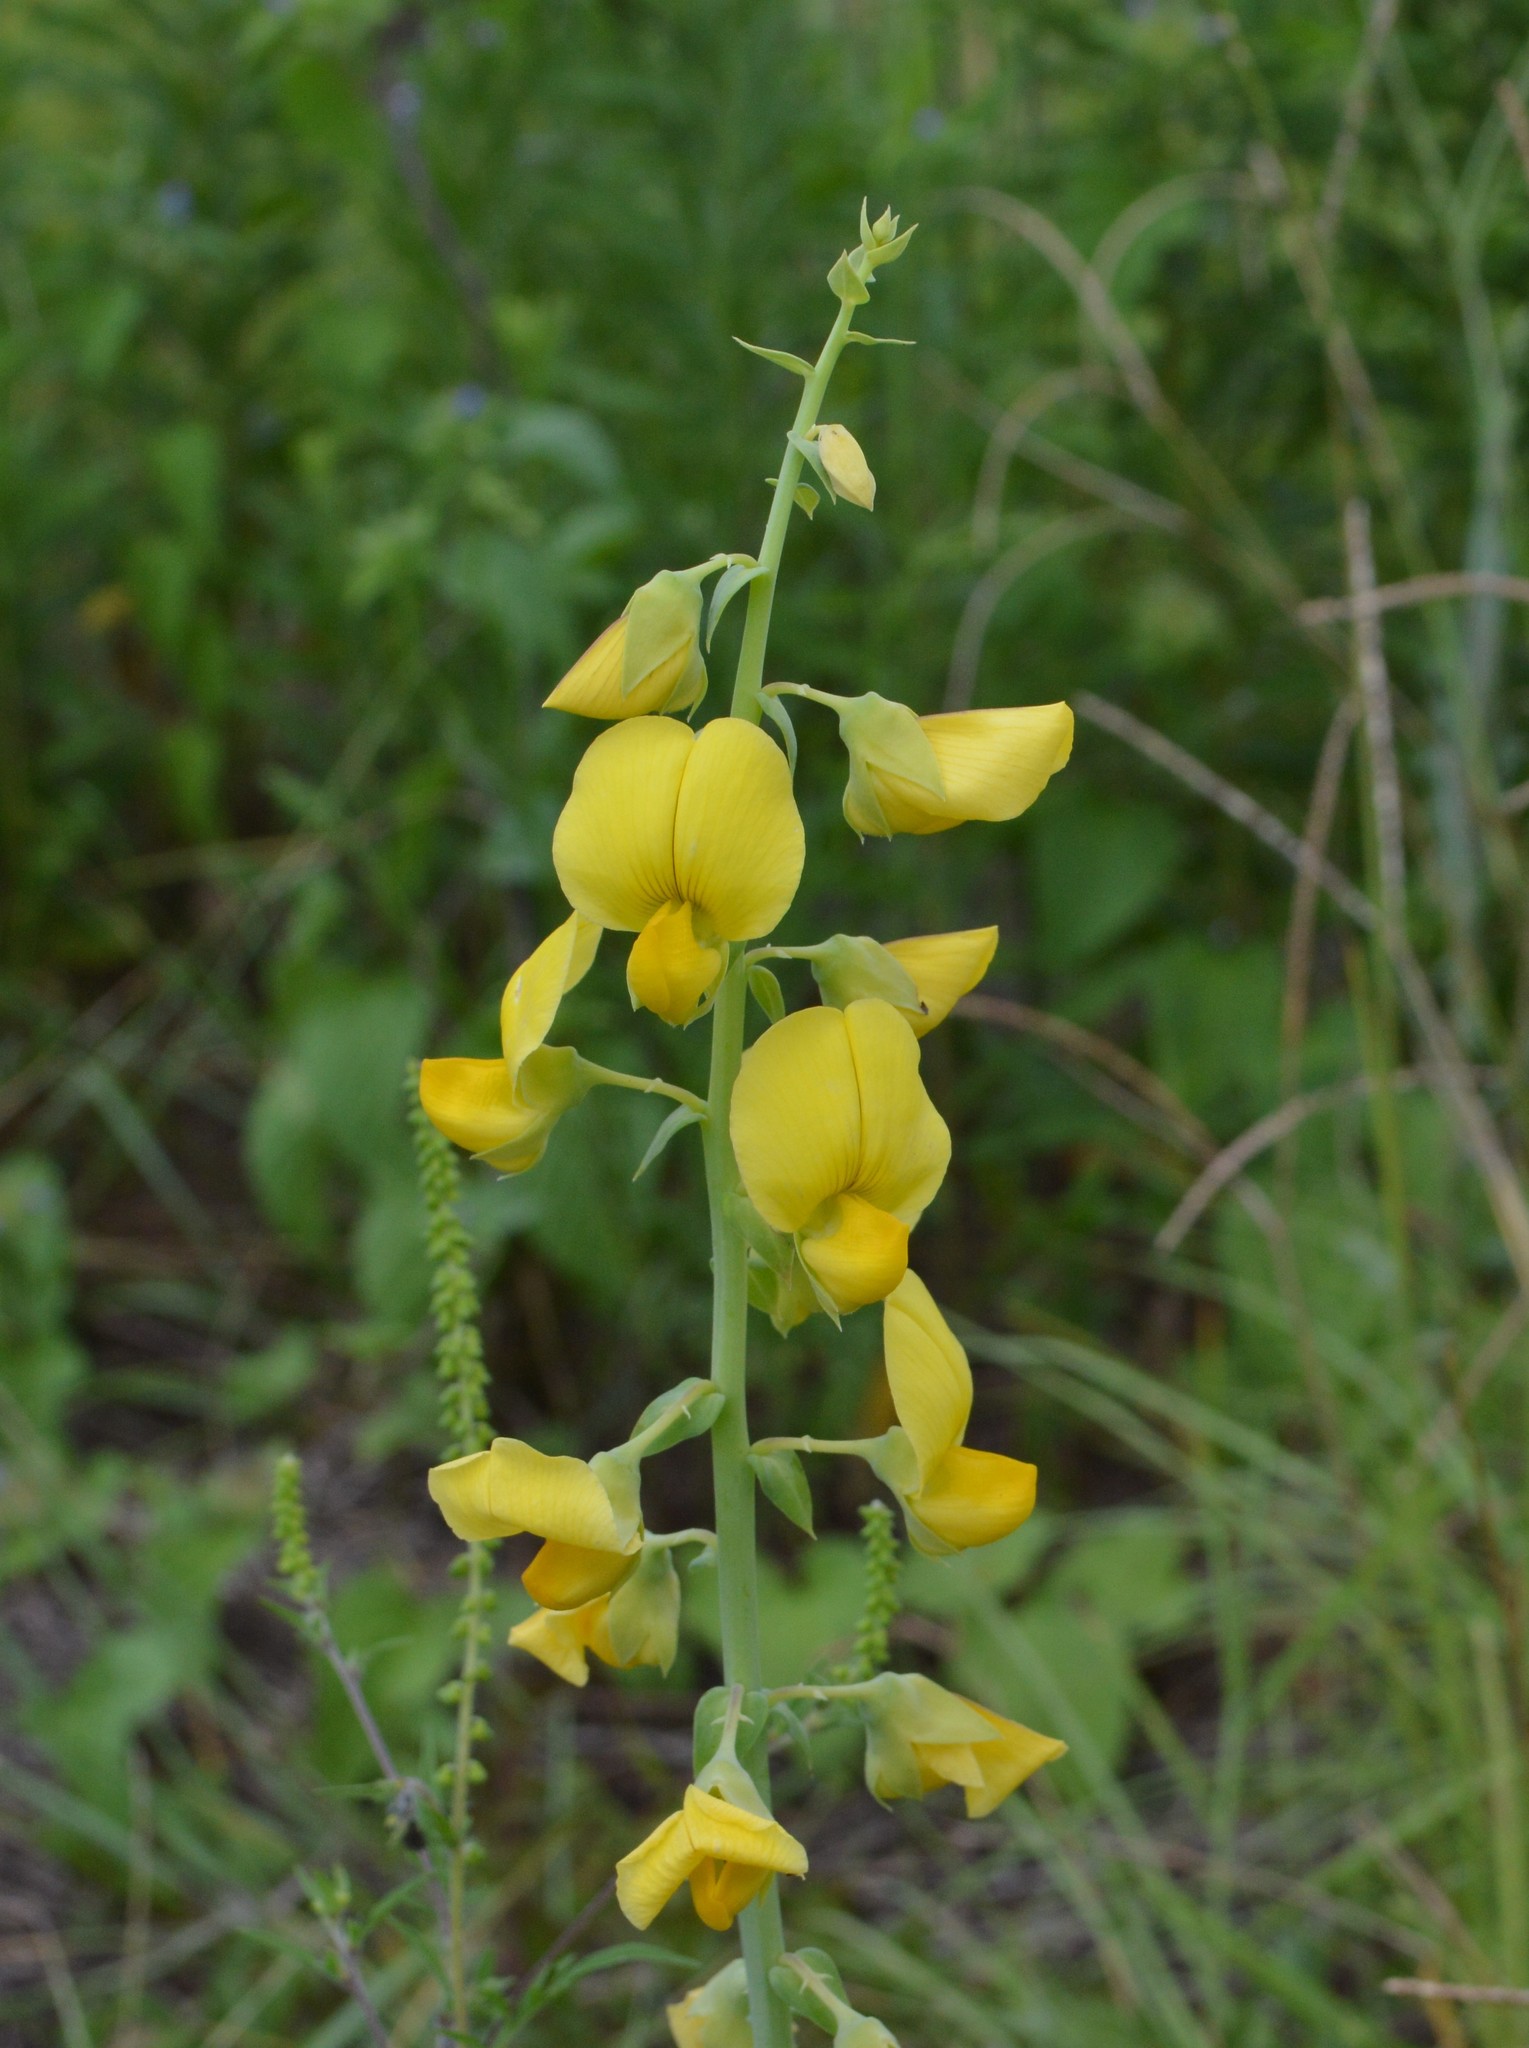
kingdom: Plantae
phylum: Tracheophyta
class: Magnoliopsida
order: Fabales
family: Fabaceae
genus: Crotalaria
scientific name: Crotalaria spectabilis
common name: Showy rattlebox
